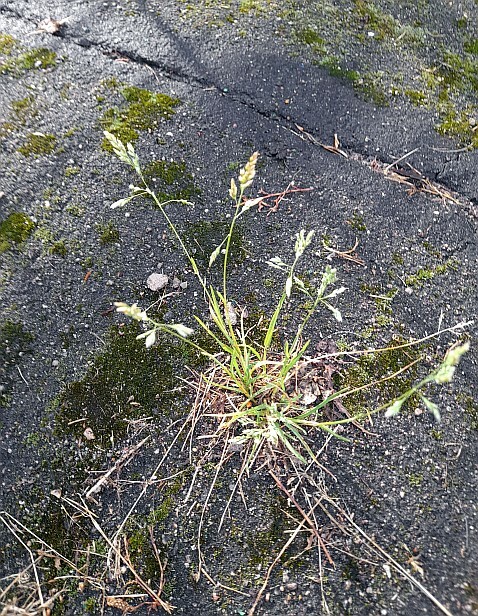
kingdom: Plantae
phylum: Tracheophyta
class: Liliopsida
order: Poales
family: Poaceae
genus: Poa
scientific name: Poa annua
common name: Annual bluegrass
